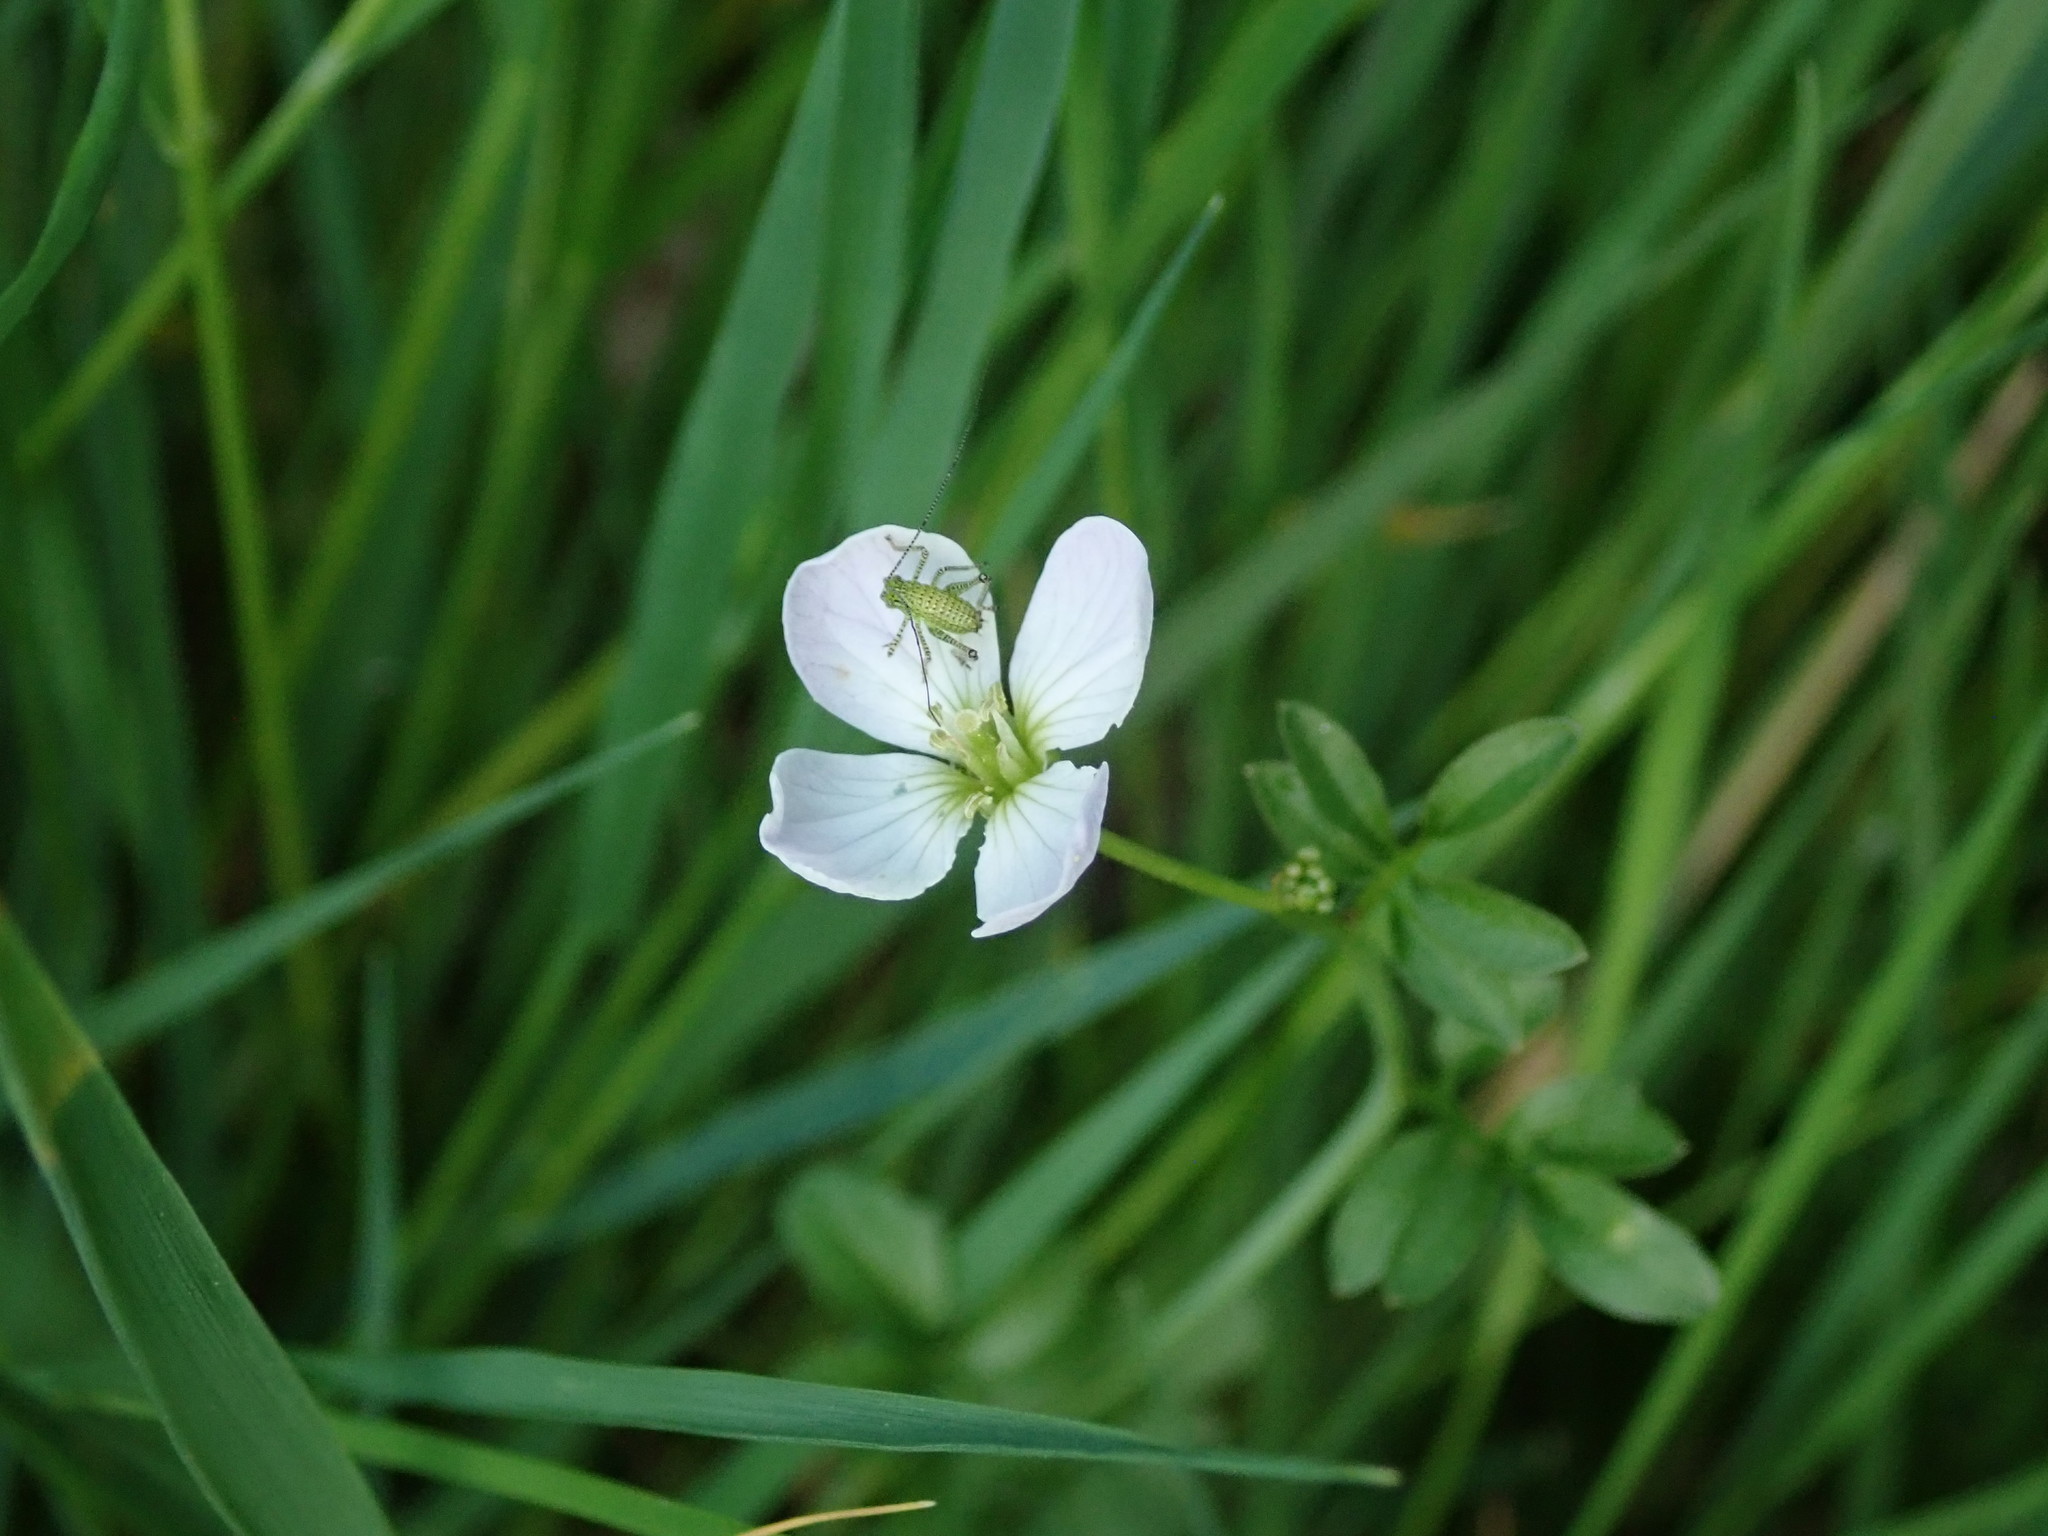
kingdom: Animalia
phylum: Arthropoda
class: Insecta
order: Orthoptera
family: Tettigoniidae
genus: Leptophyes
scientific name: Leptophyes punctatissima
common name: Speckled bush-cricket
